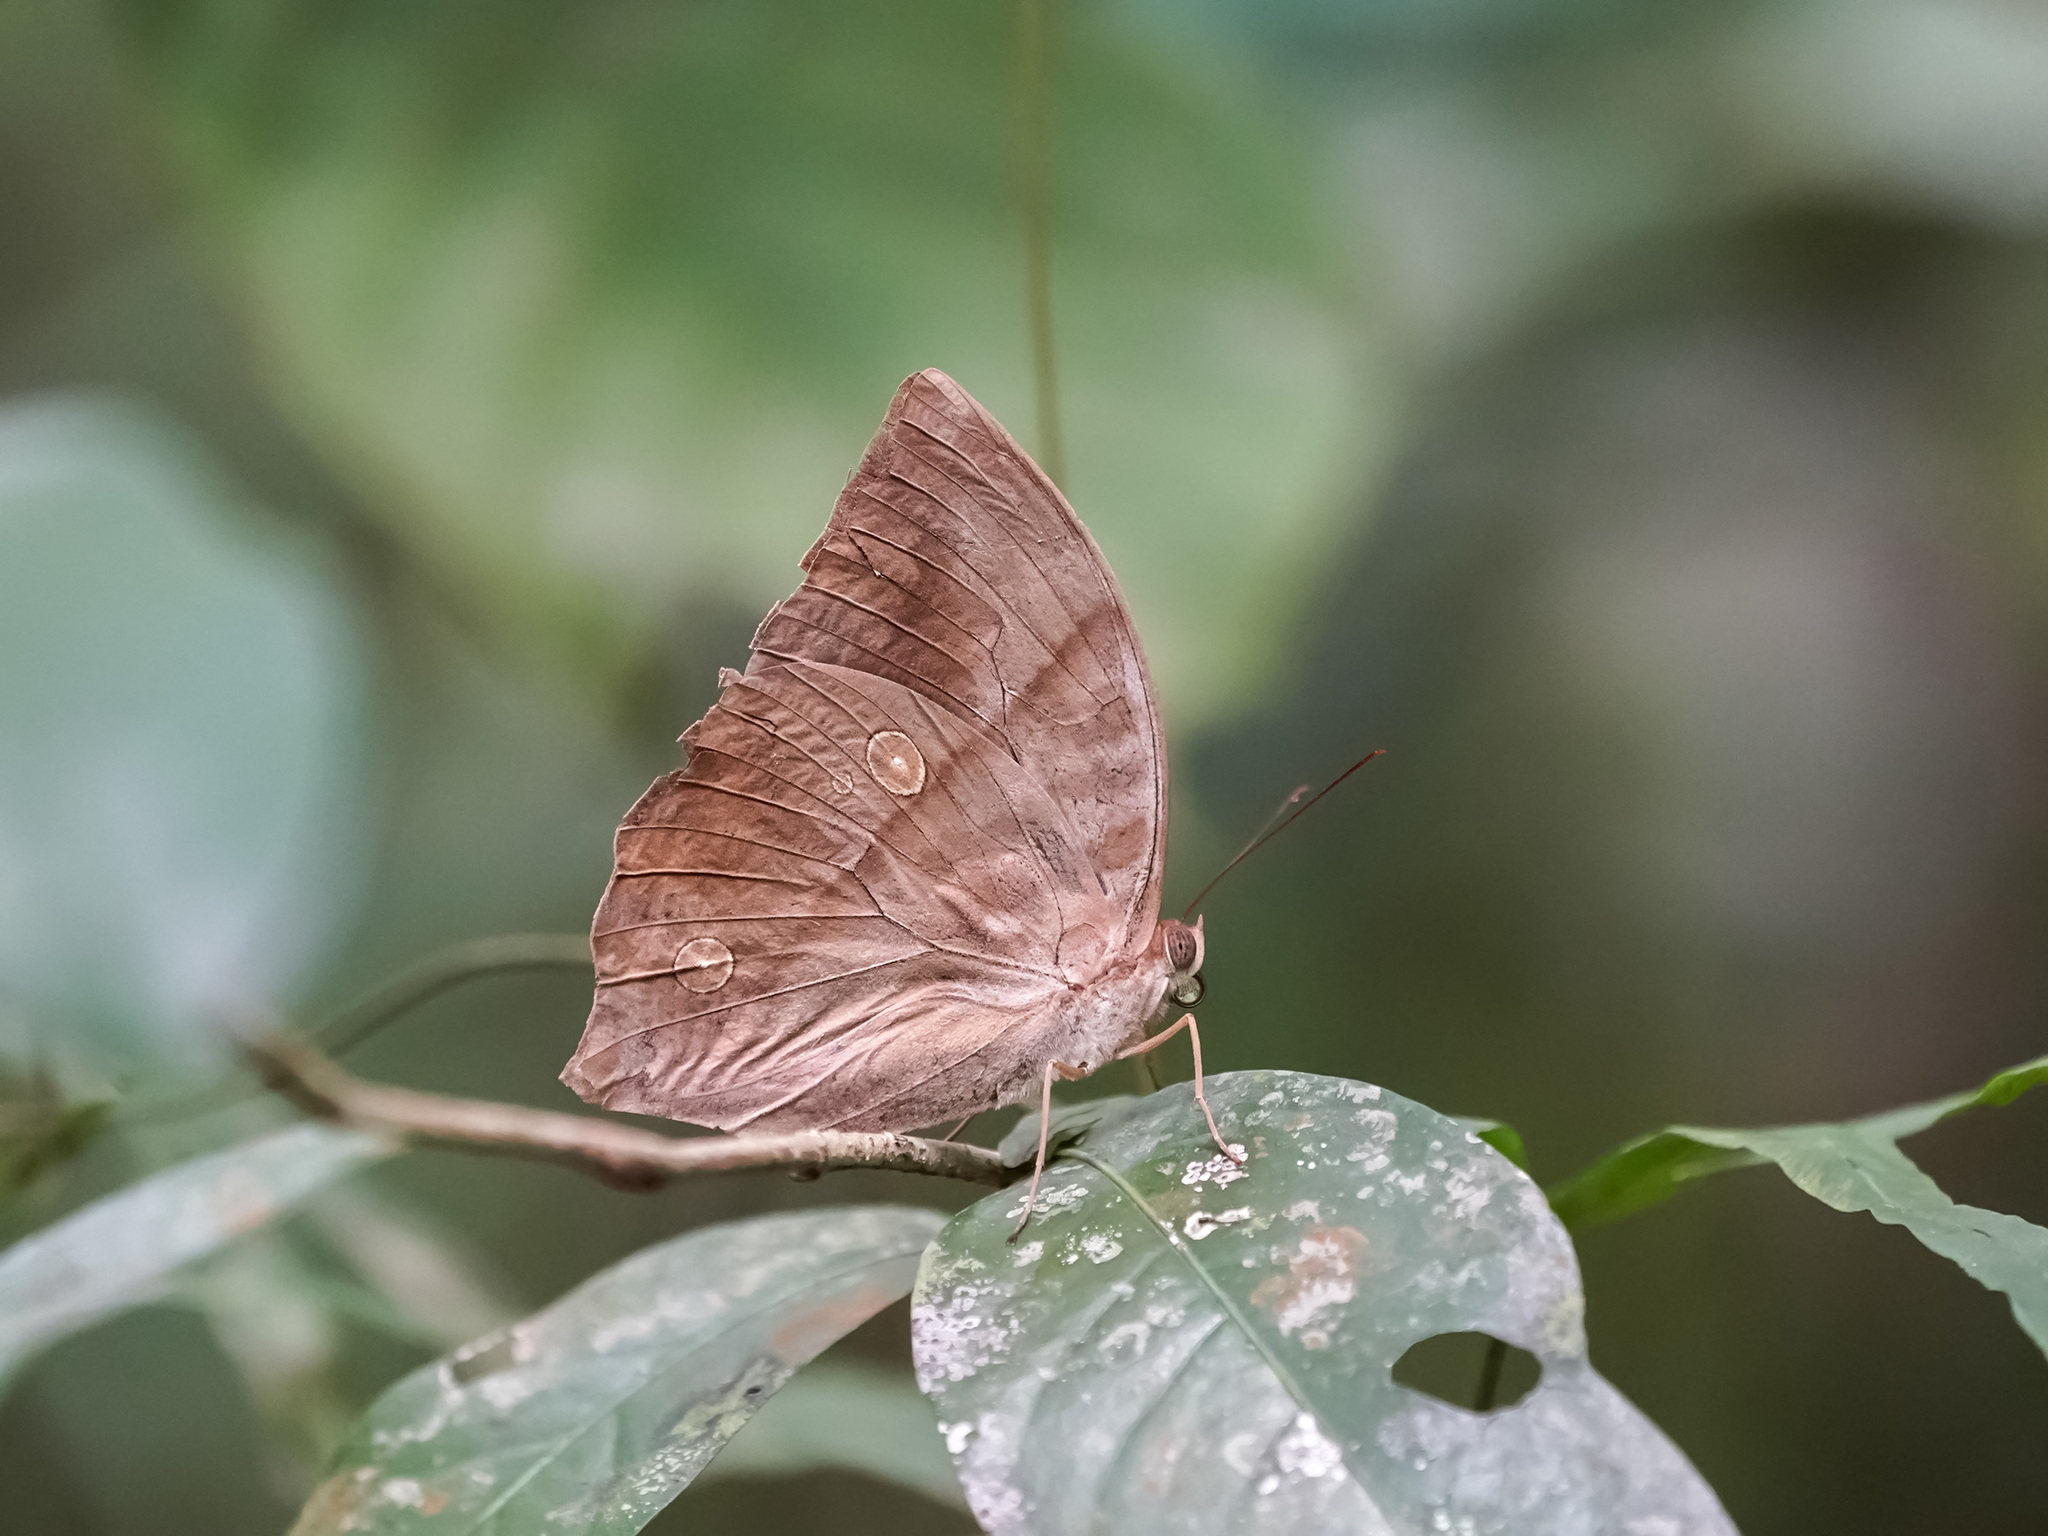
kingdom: Animalia
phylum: Arthropoda
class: Insecta
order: Lepidoptera
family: Nymphalidae
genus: Zeuxidia
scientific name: Zeuxidia amethysta
